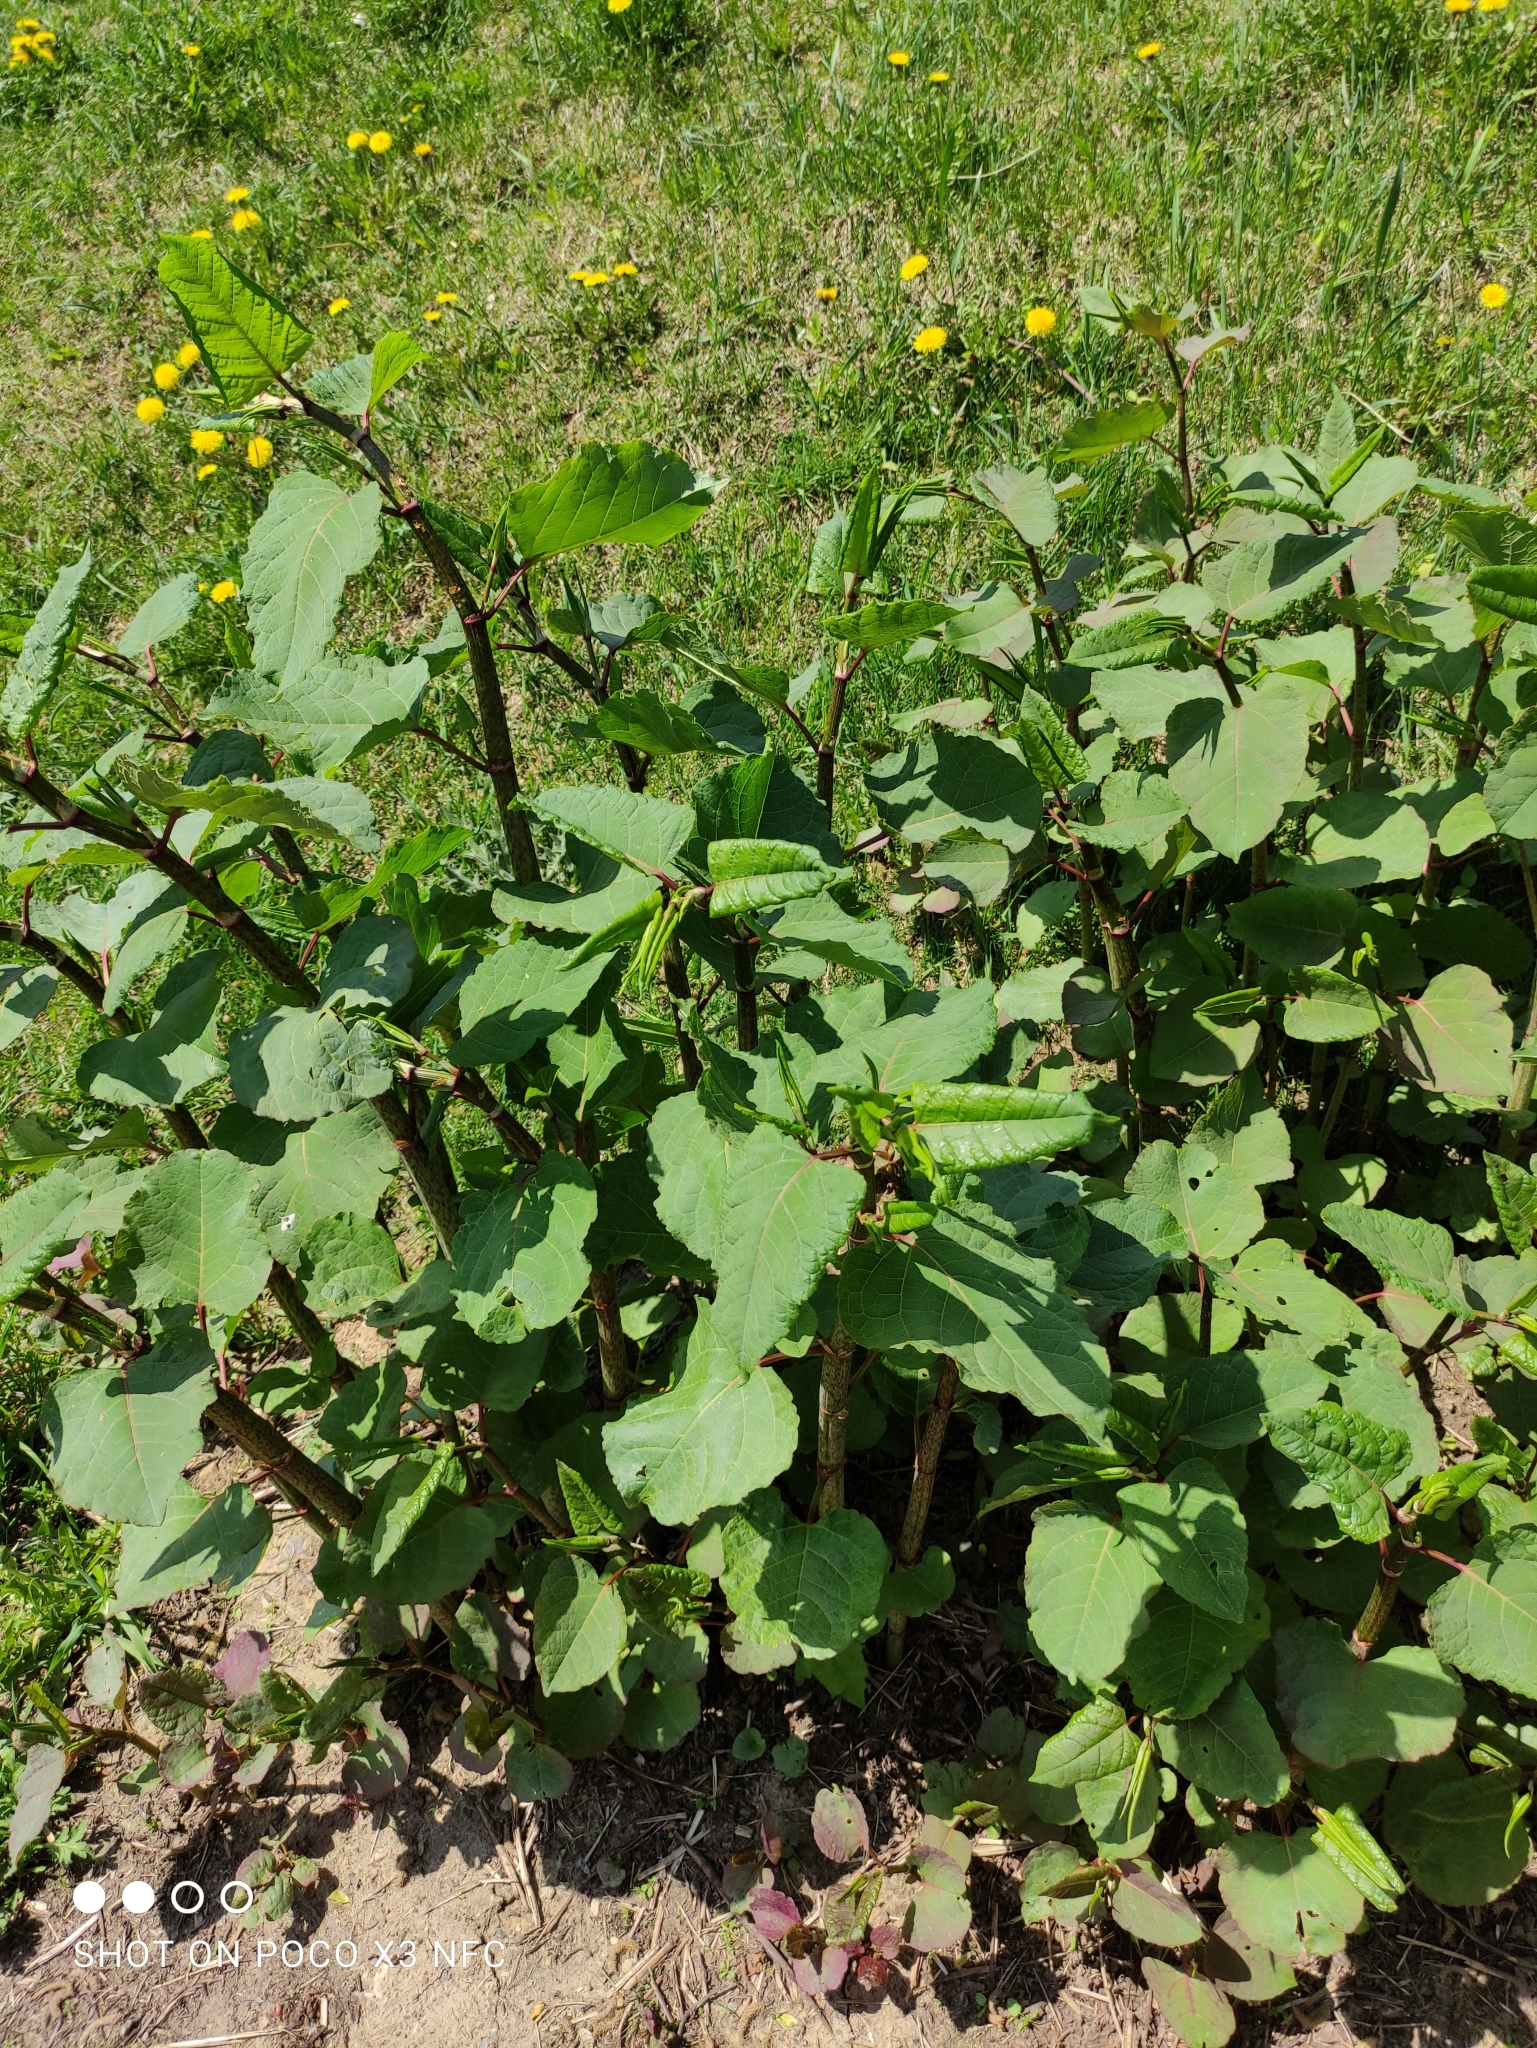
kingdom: Plantae
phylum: Tracheophyta
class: Magnoliopsida
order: Caryophyllales
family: Polygonaceae
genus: Reynoutria
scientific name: Reynoutria bohemica
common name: Bohemian knotweed
